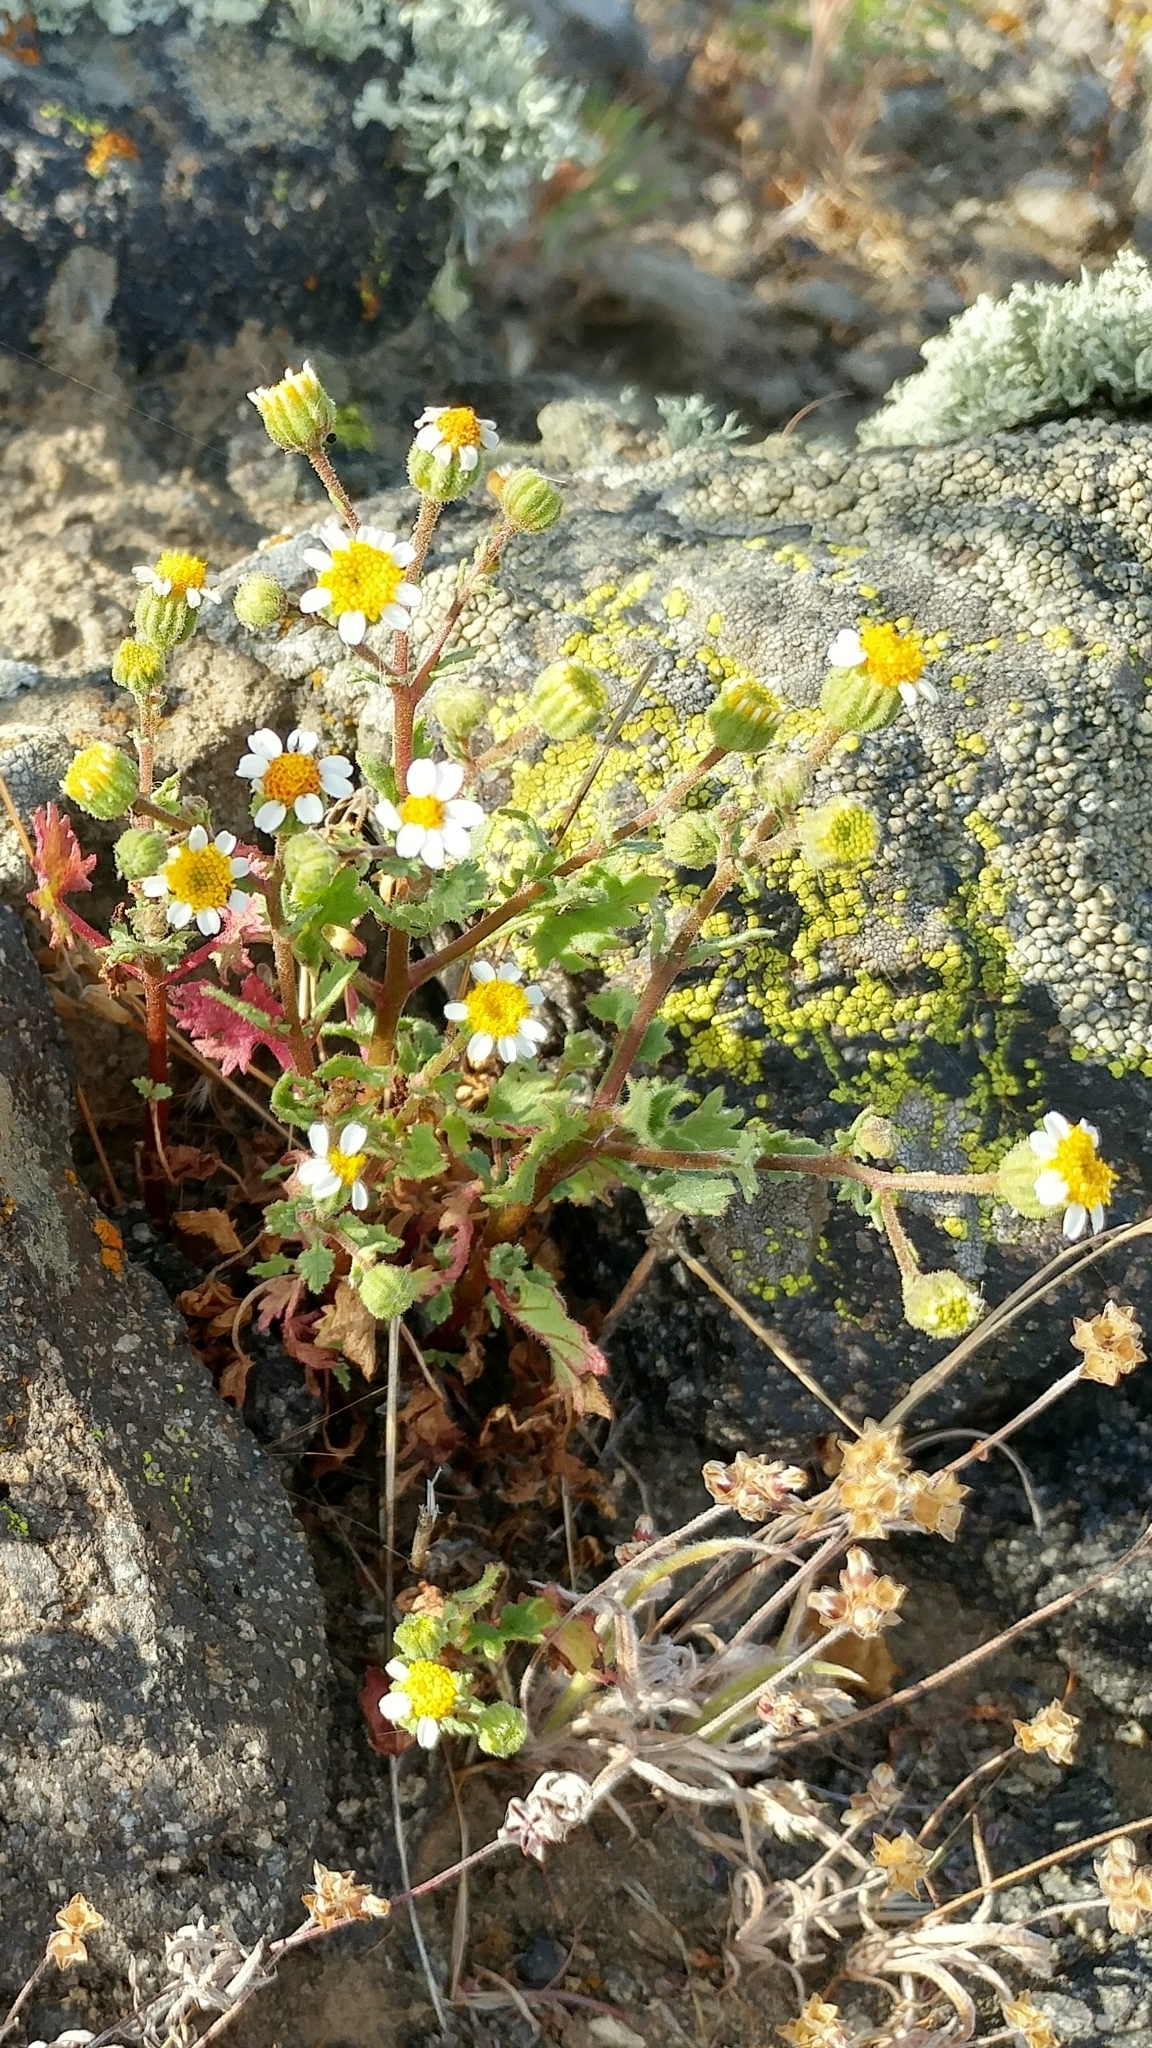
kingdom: Plantae
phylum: Tracheophyta
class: Magnoliopsida
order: Asterales
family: Asteraceae
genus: Laphamia
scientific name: Laphamia emoryi
